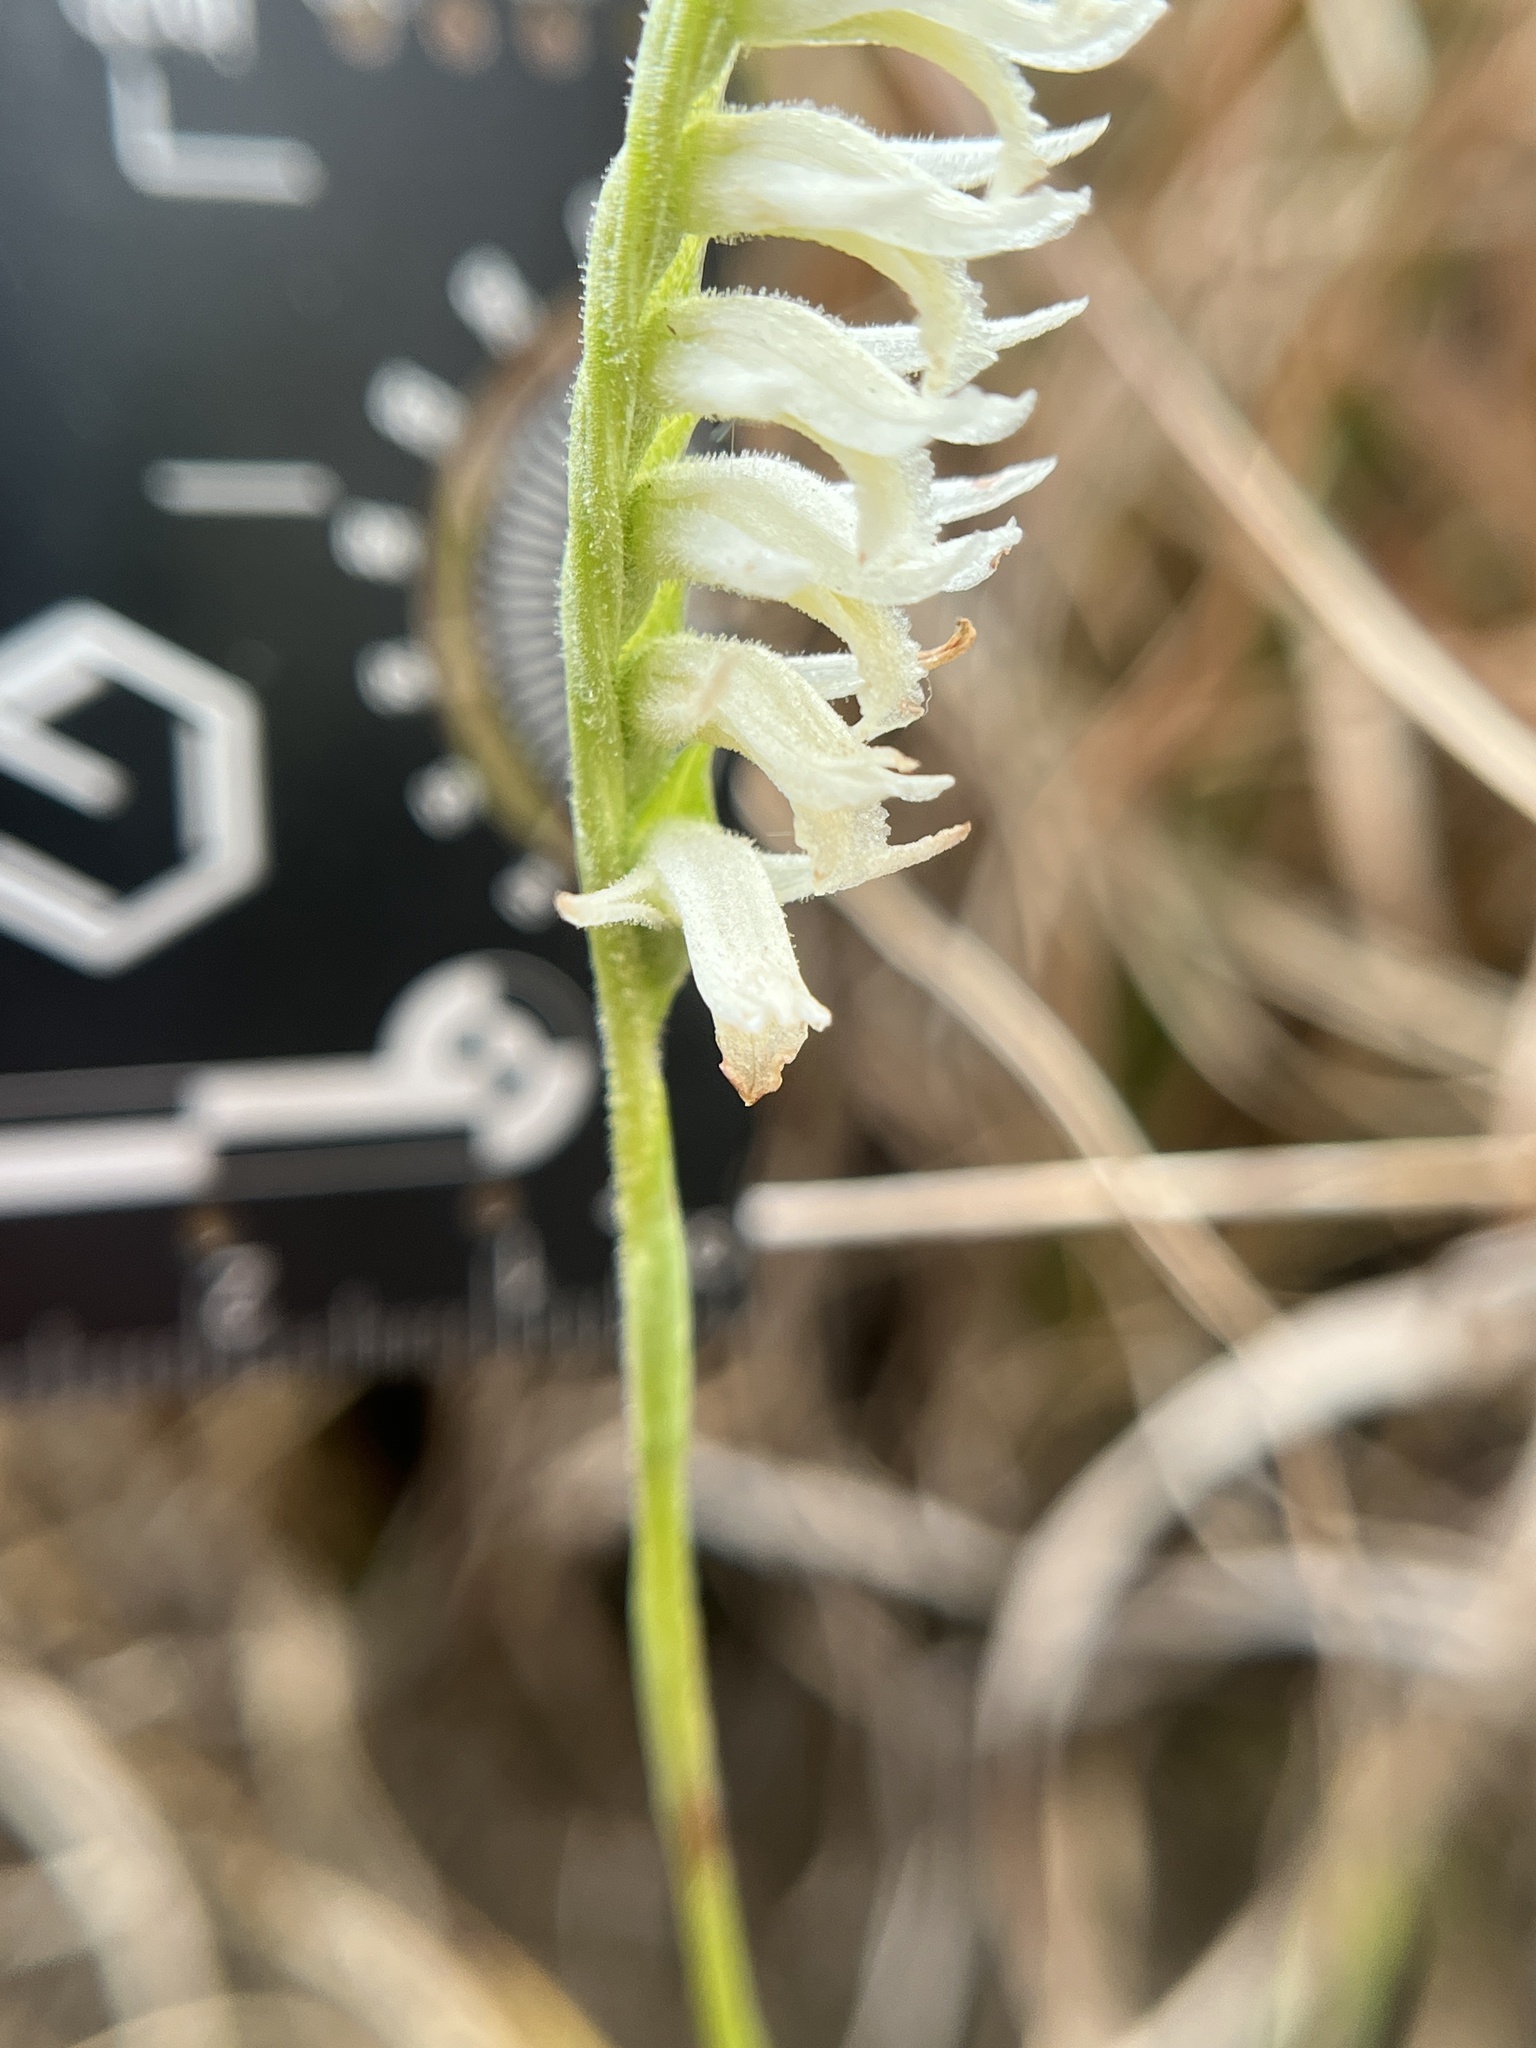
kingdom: Plantae
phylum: Tracheophyta
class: Liliopsida
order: Asparagales
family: Orchidaceae
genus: Spiranthes
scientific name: Spiranthes longilabris
